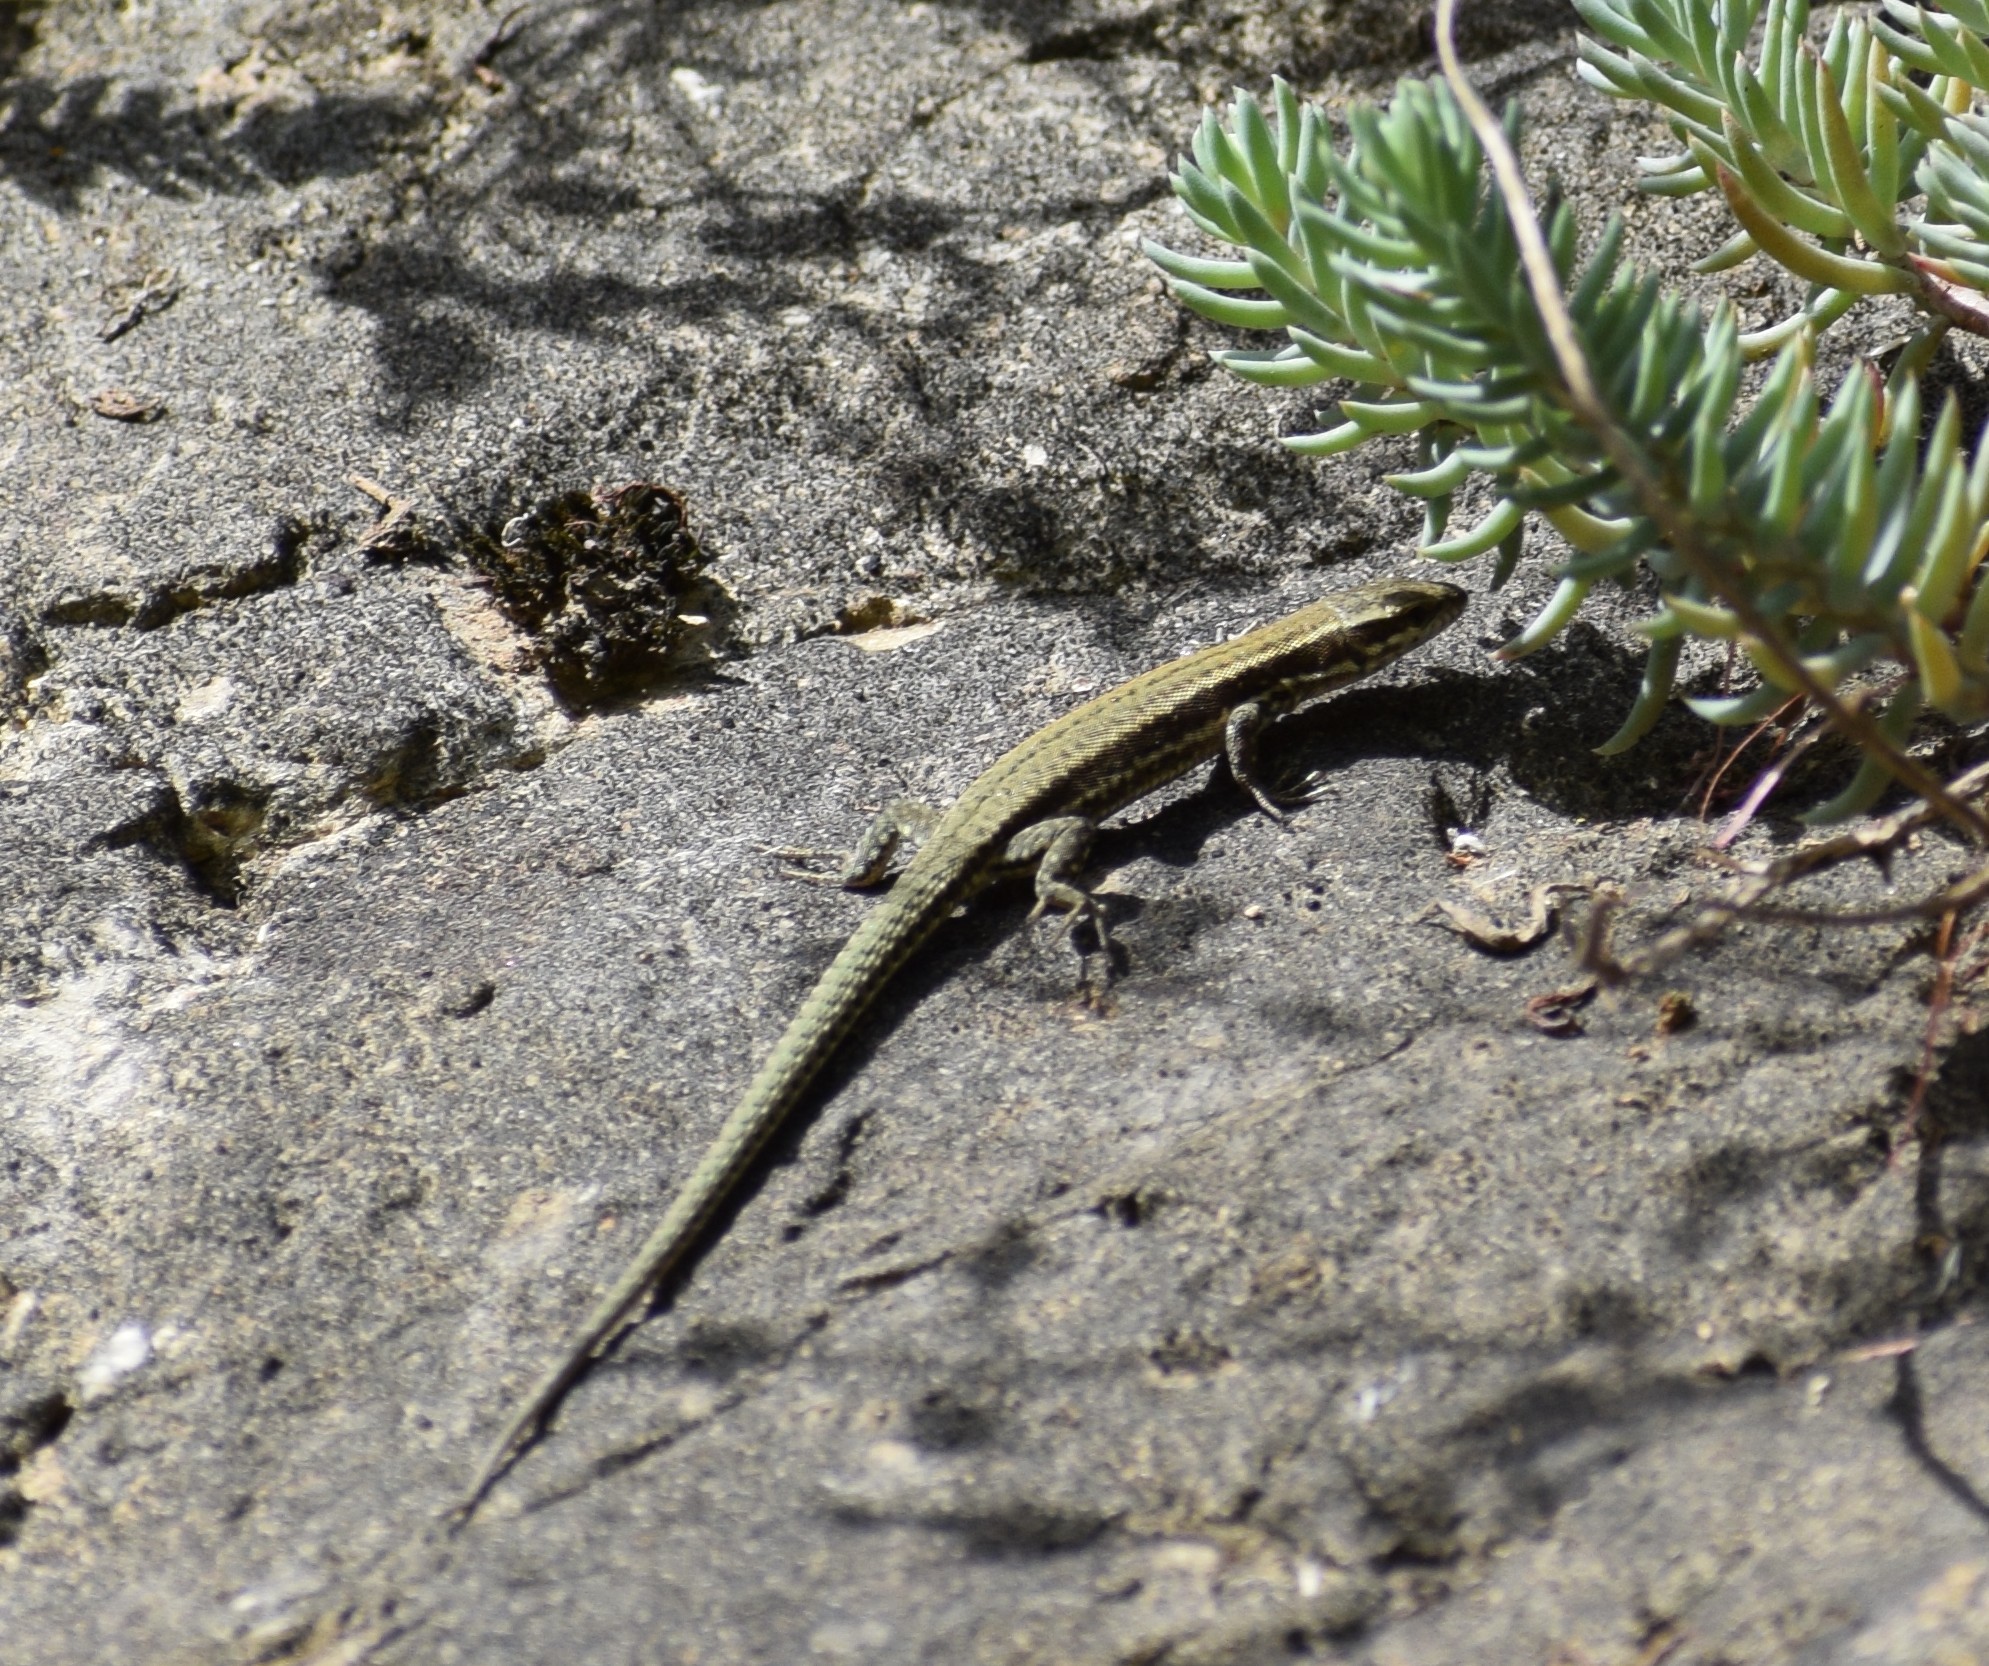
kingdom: Animalia
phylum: Chordata
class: Squamata
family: Lacertidae
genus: Podarcis
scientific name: Podarcis muralis
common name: Common wall lizard
